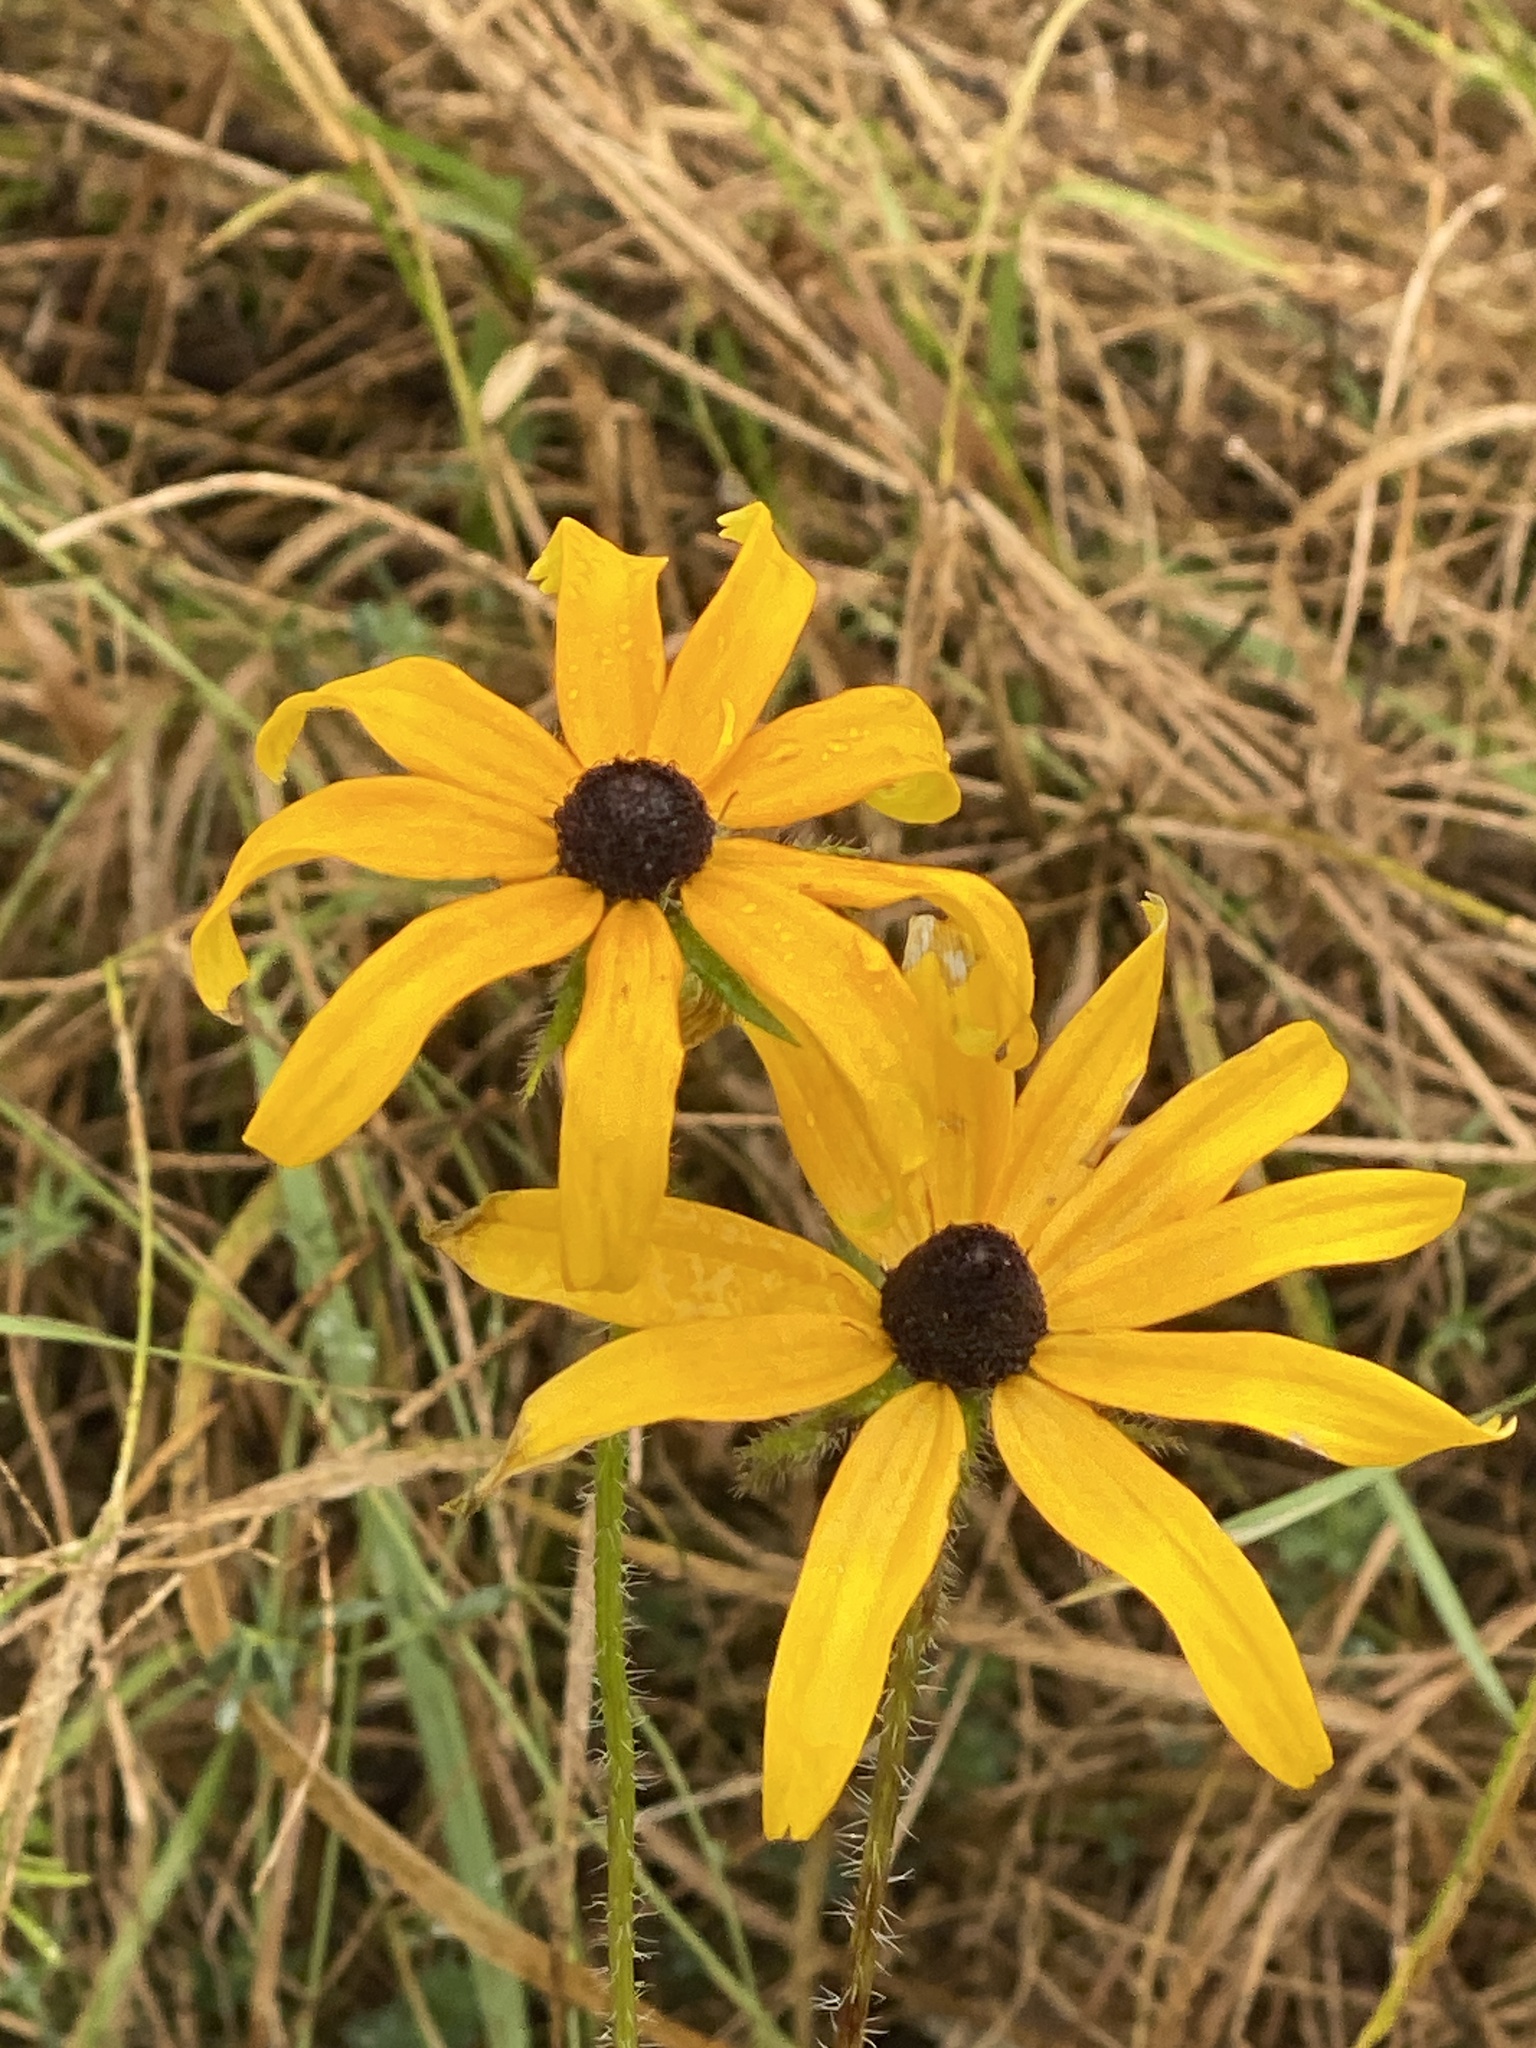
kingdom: Plantae
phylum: Tracheophyta
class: Magnoliopsida
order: Asterales
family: Asteraceae
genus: Rudbeckia
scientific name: Rudbeckia hirta
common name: Black-eyed-susan
